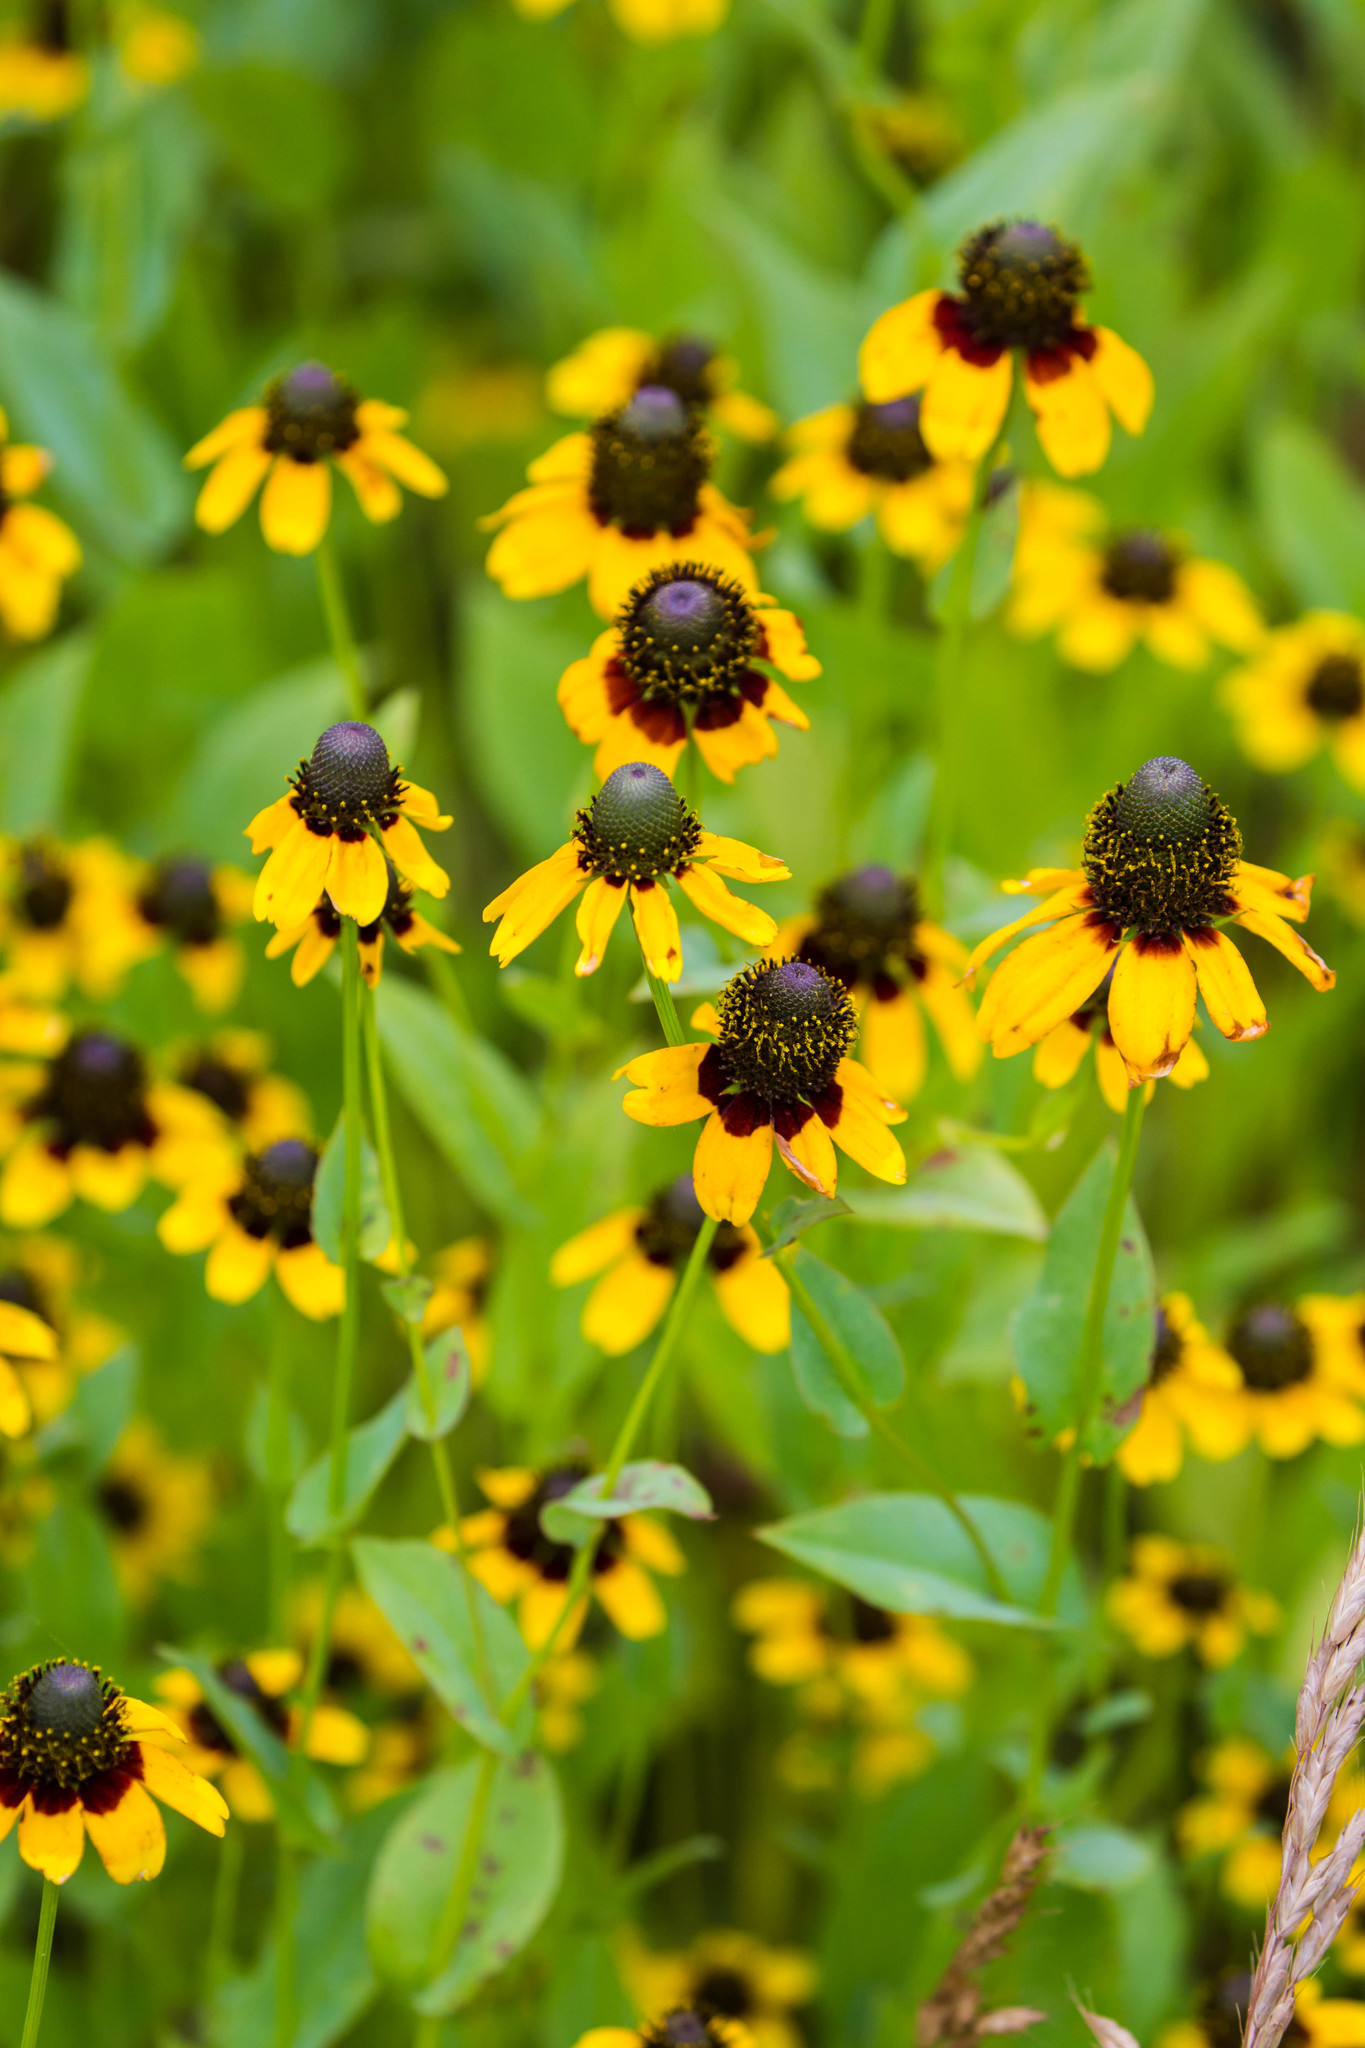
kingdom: Plantae
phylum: Tracheophyta
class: Magnoliopsida
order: Asterales
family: Asteraceae
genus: Rudbeckia
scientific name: Rudbeckia amplexicaulis
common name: Clasping-leaf coneflower
